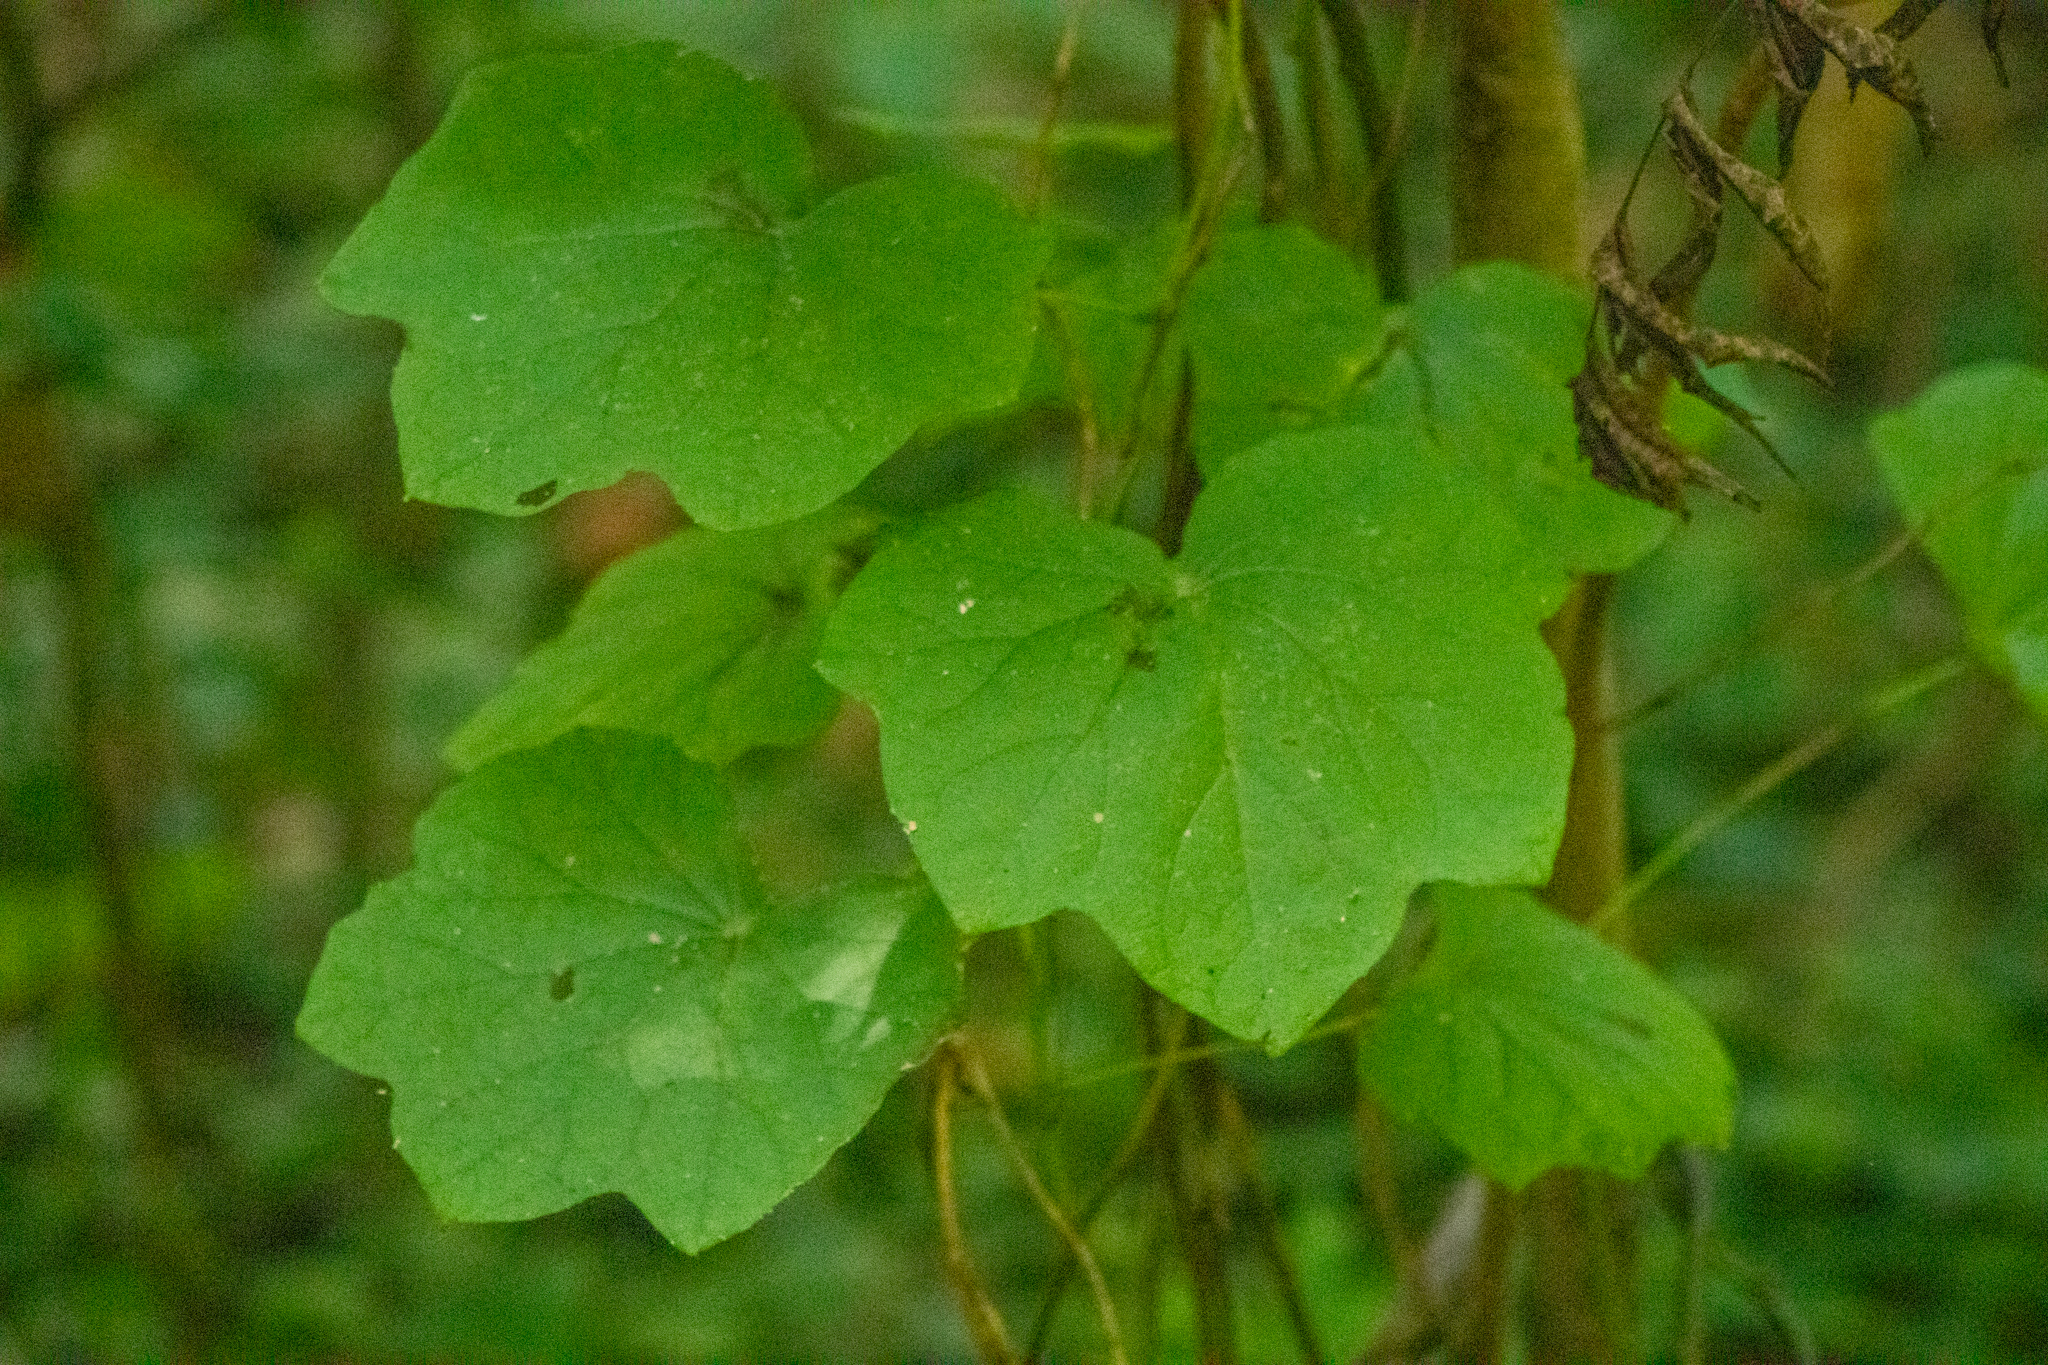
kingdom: Plantae
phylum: Tracheophyta
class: Magnoliopsida
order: Ranunculales
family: Menispermaceae
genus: Menispermum
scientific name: Menispermum canadense
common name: Moonseed
